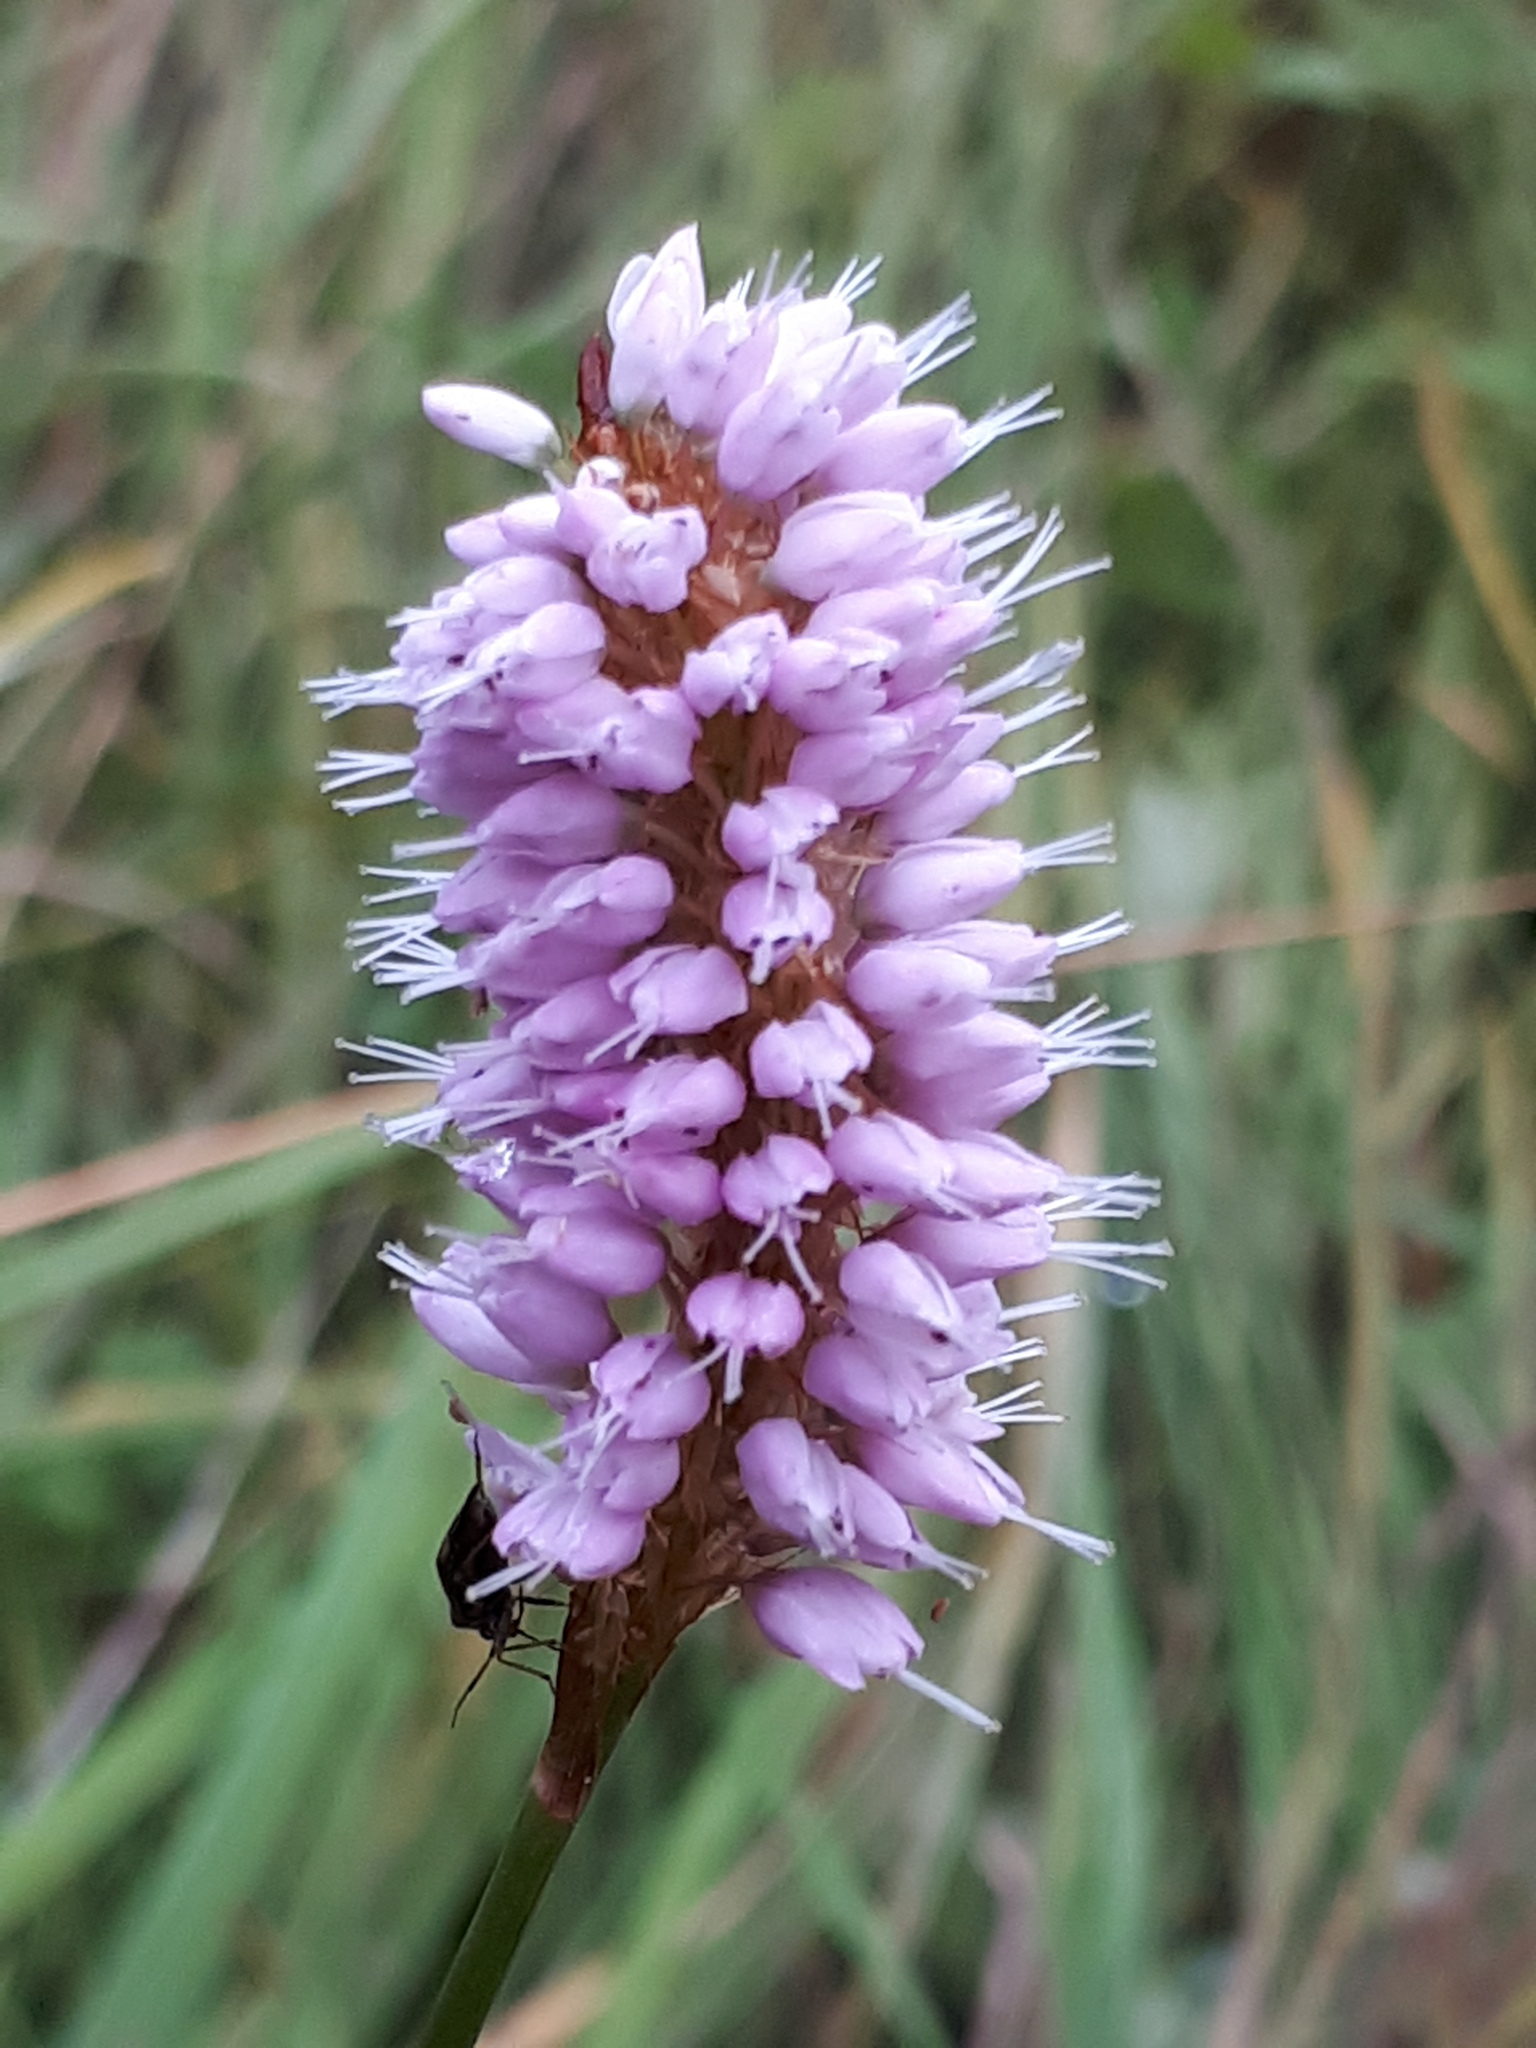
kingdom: Plantae
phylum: Tracheophyta
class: Magnoliopsida
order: Caryophyllales
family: Polygonaceae
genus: Bistorta
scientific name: Bistorta officinalis
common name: Common bistort
